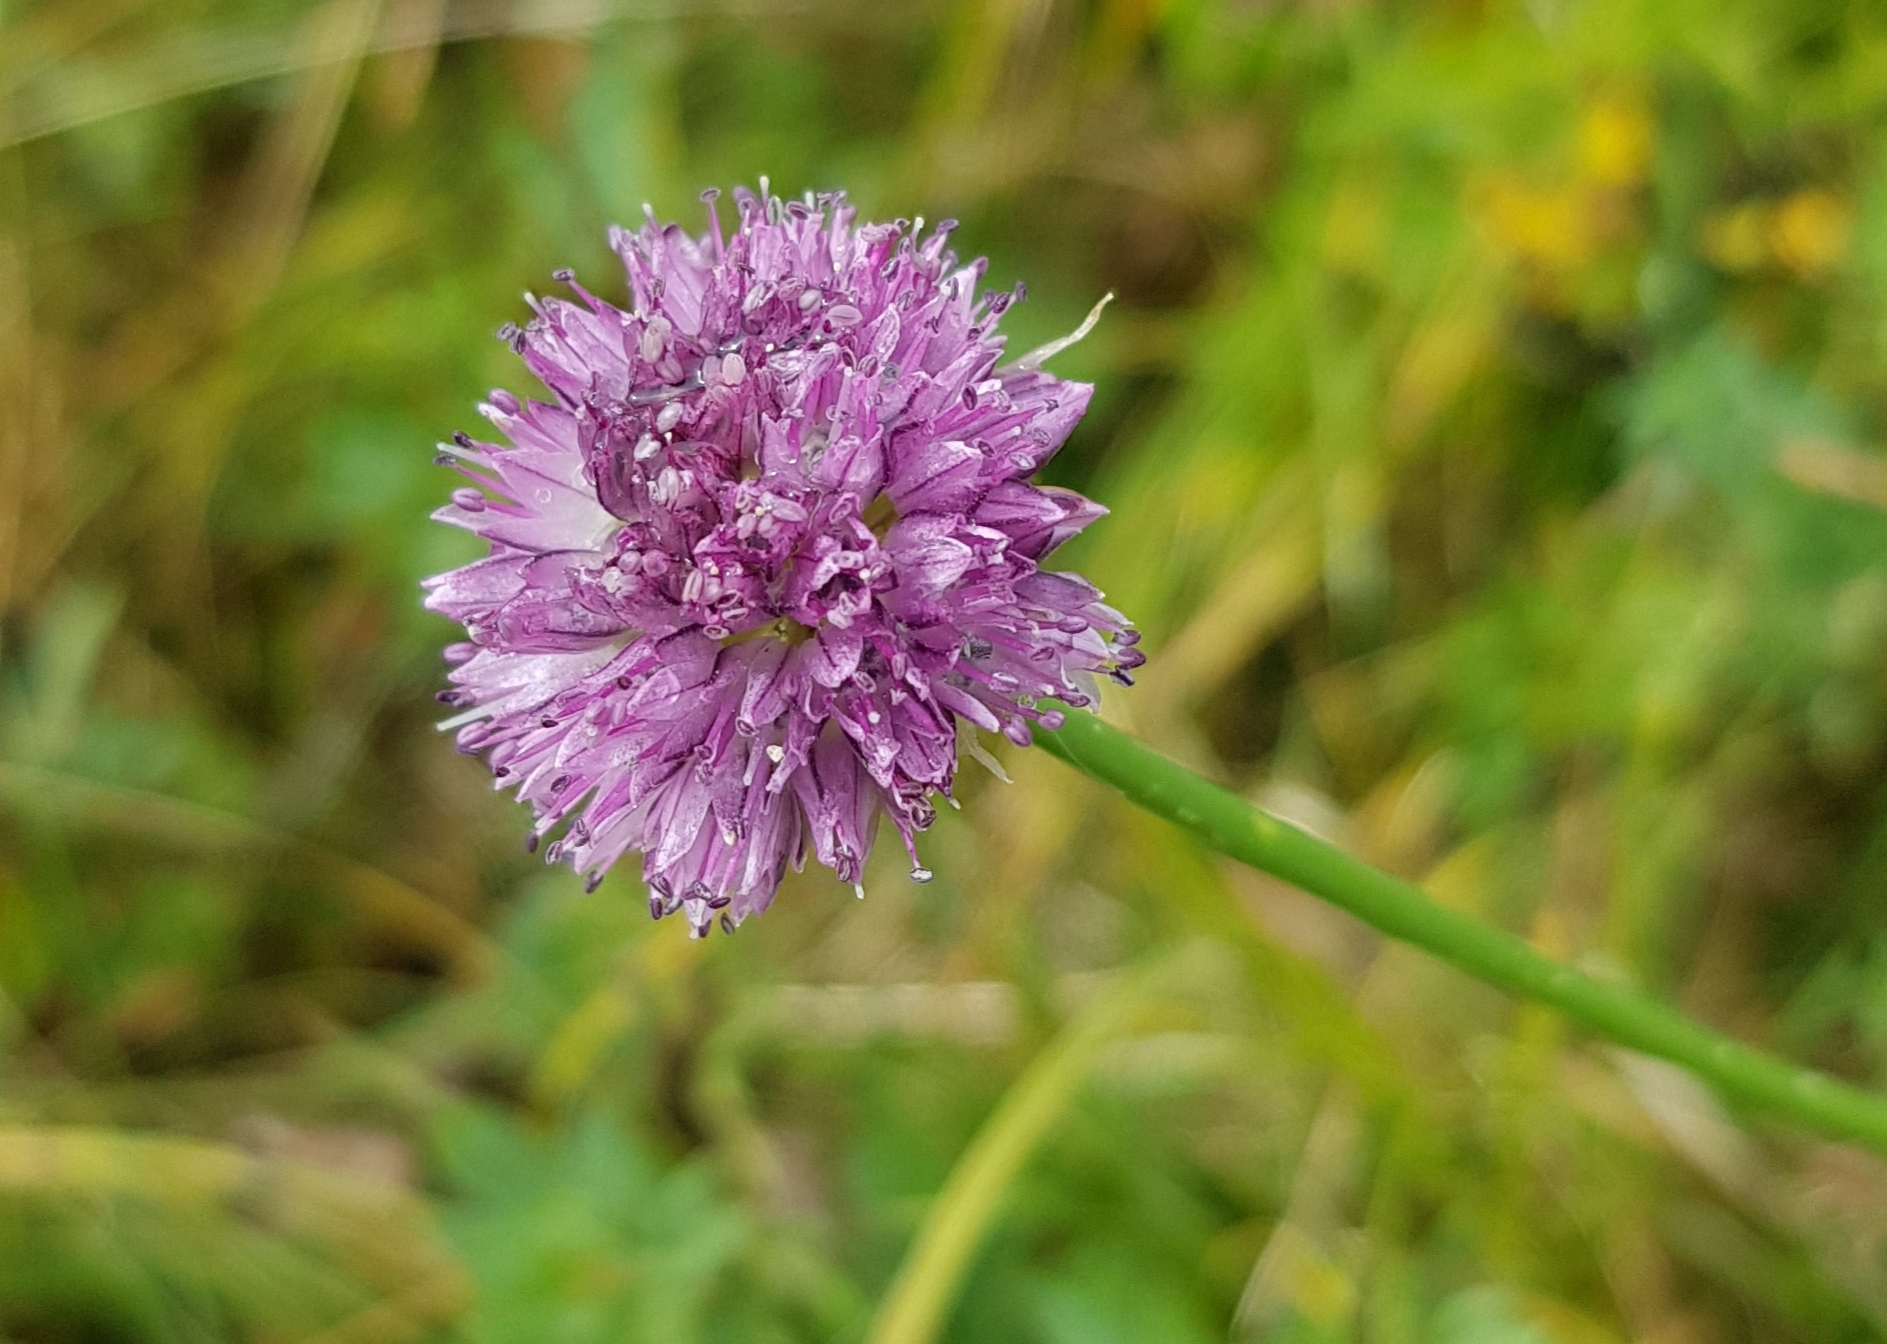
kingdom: Plantae
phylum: Tracheophyta
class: Liliopsida
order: Asparagales
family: Amaryllidaceae
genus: Allium
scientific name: Allium strictum
